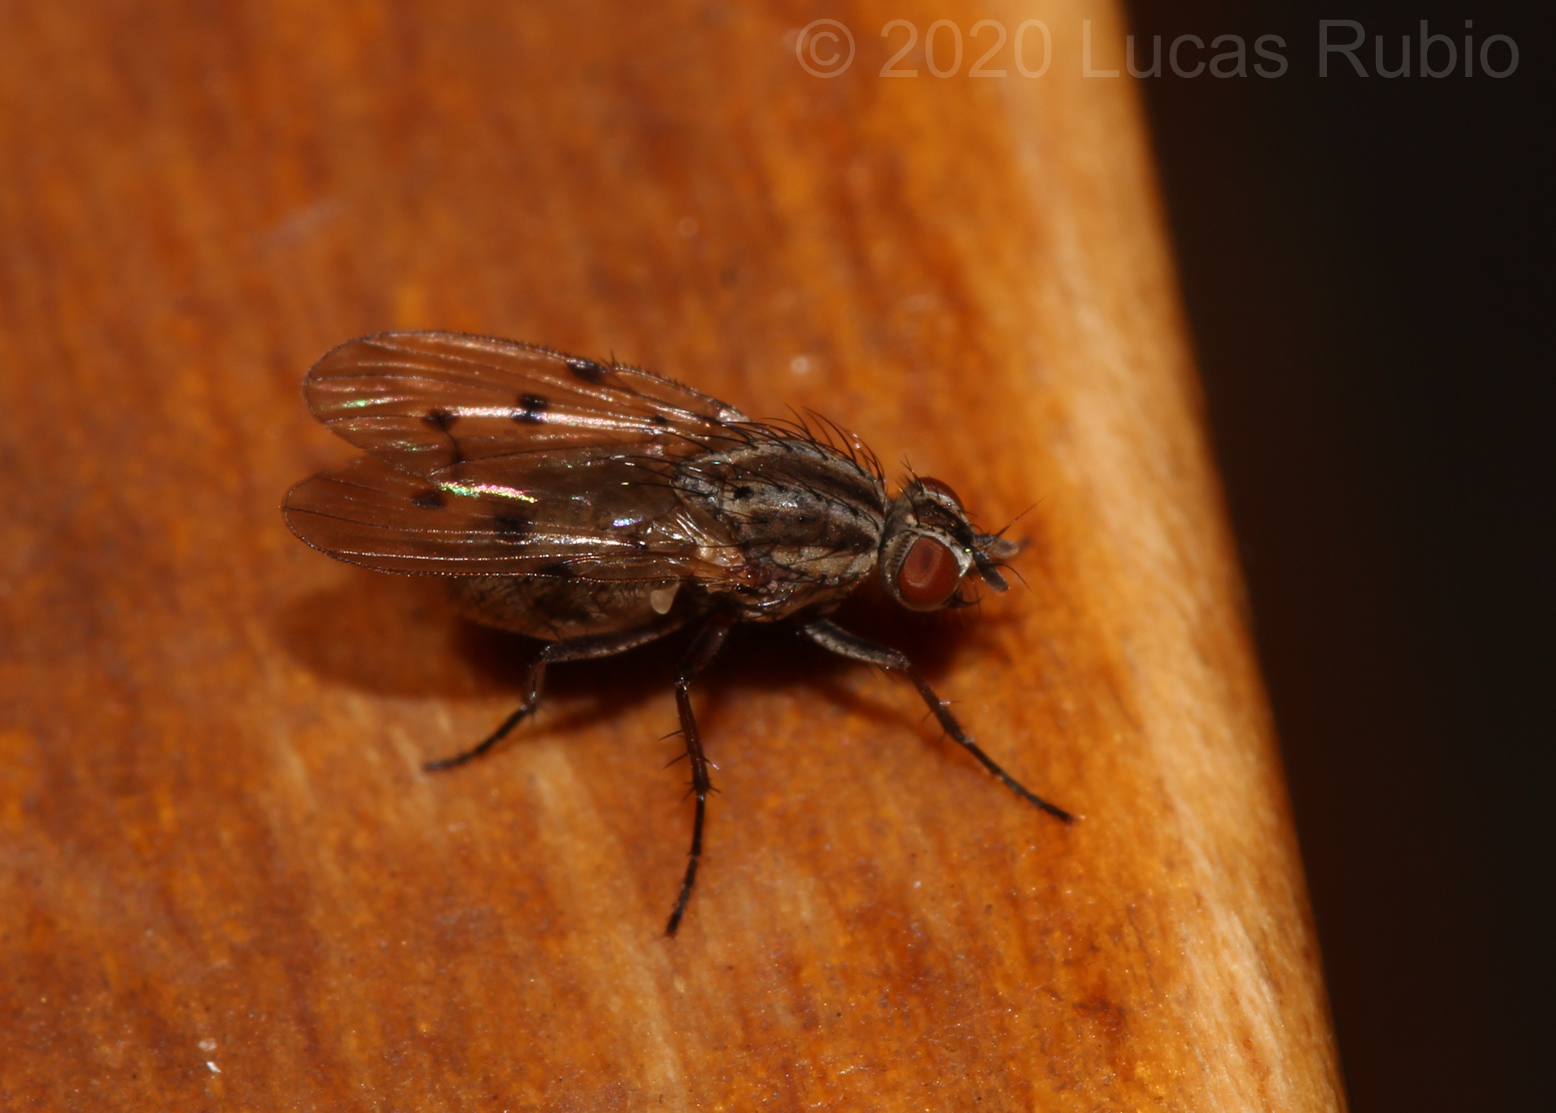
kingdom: Animalia
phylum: Arthropoda
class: Insecta
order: Diptera
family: Anthomyiidae
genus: Anthomyia
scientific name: Anthomyia punctipennis
